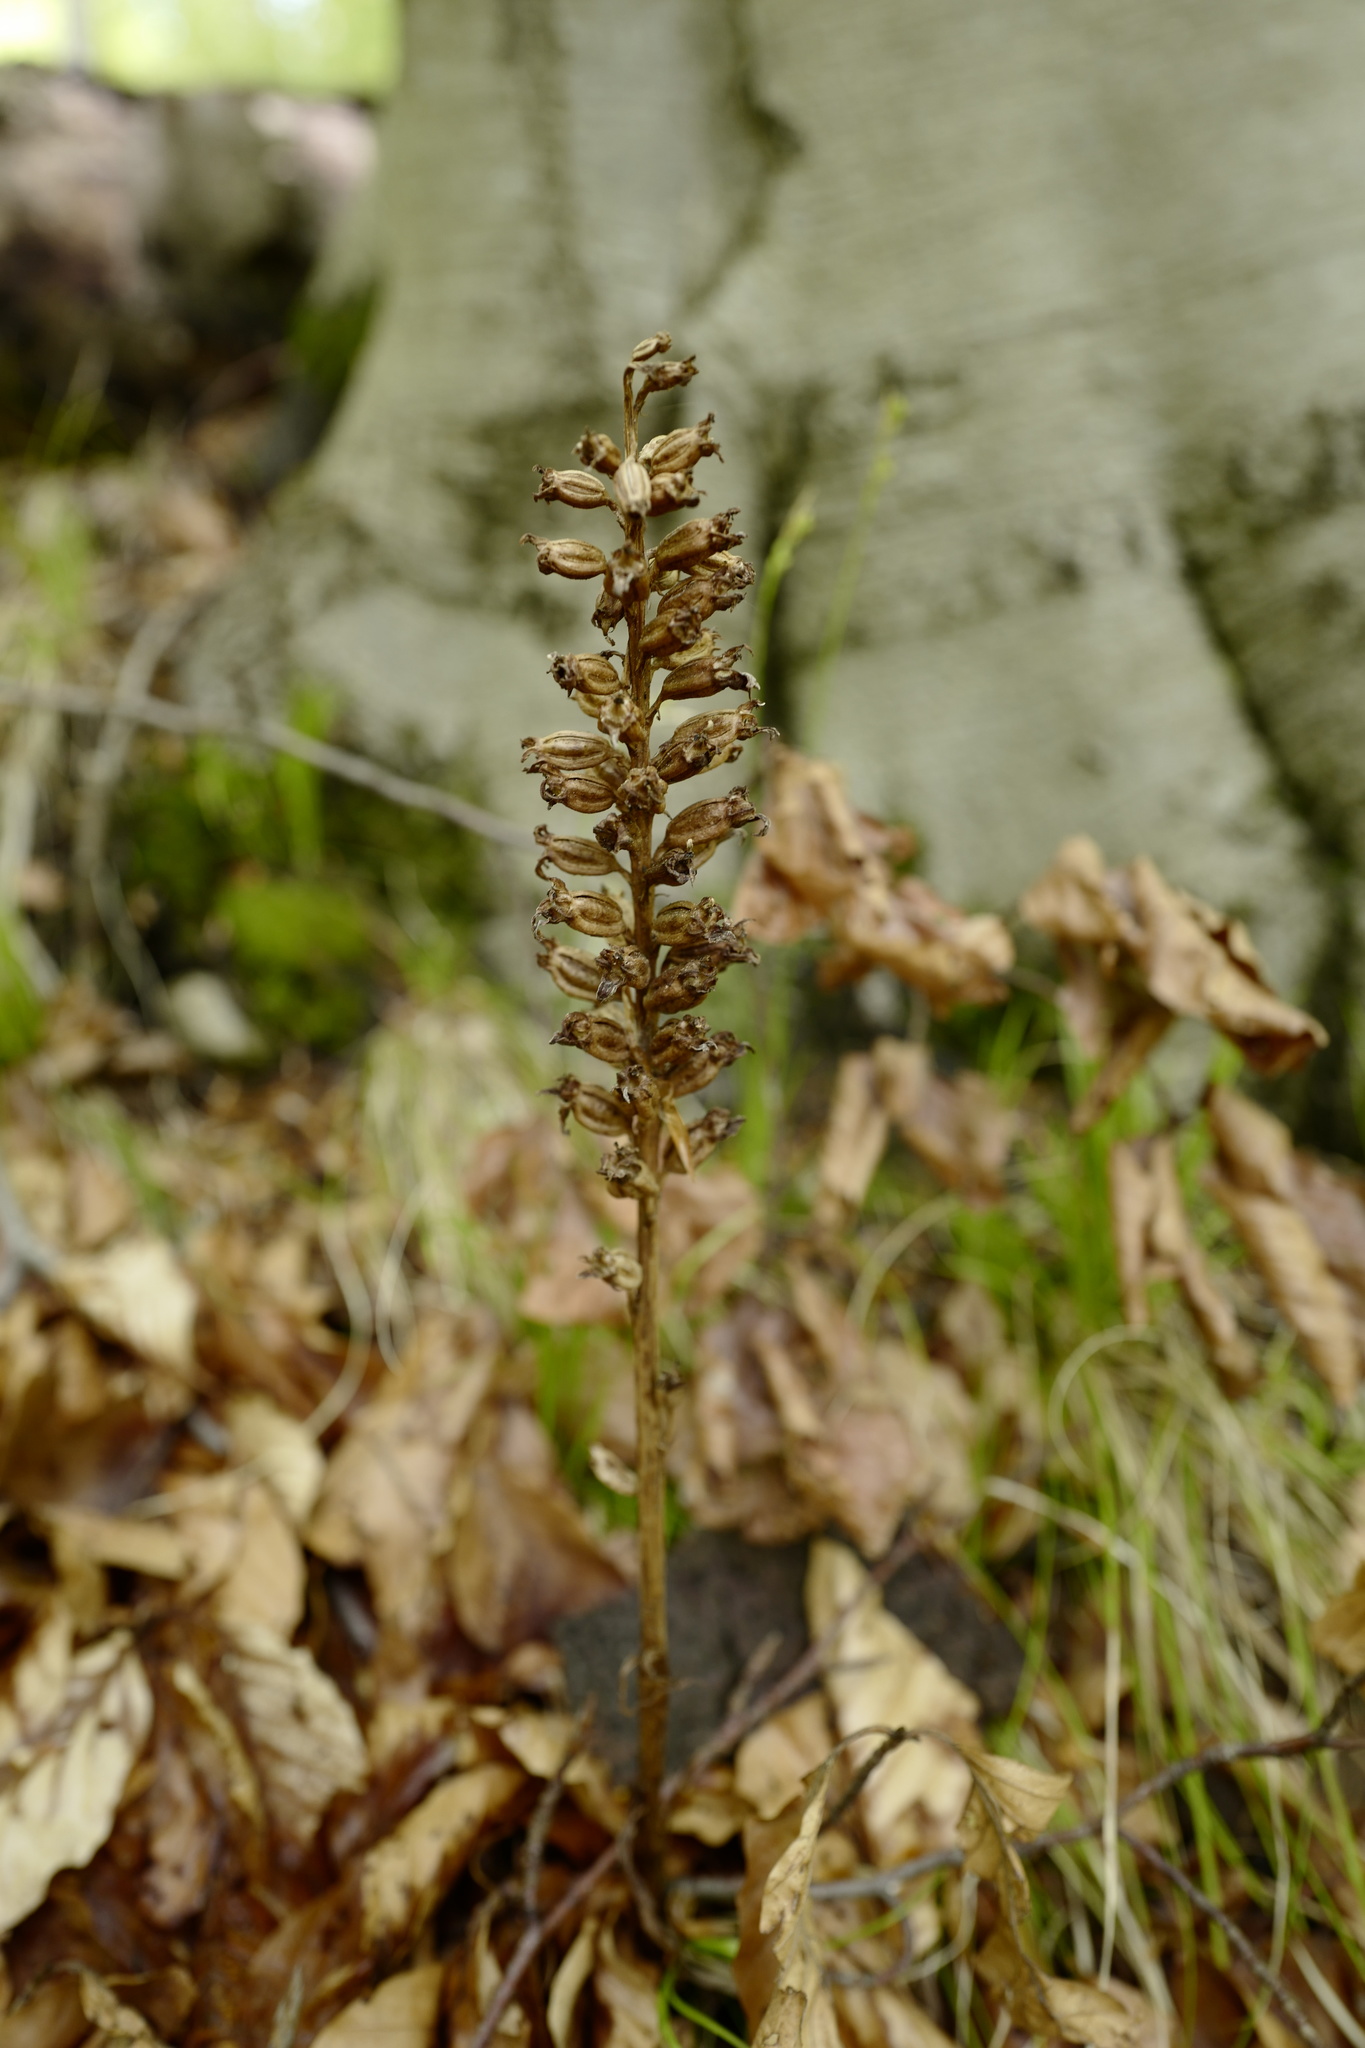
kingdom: Plantae
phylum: Tracheophyta
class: Liliopsida
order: Asparagales
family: Orchidaceae
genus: Neottia
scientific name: Neottia nidus-avis
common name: Bird's-nest orchid
